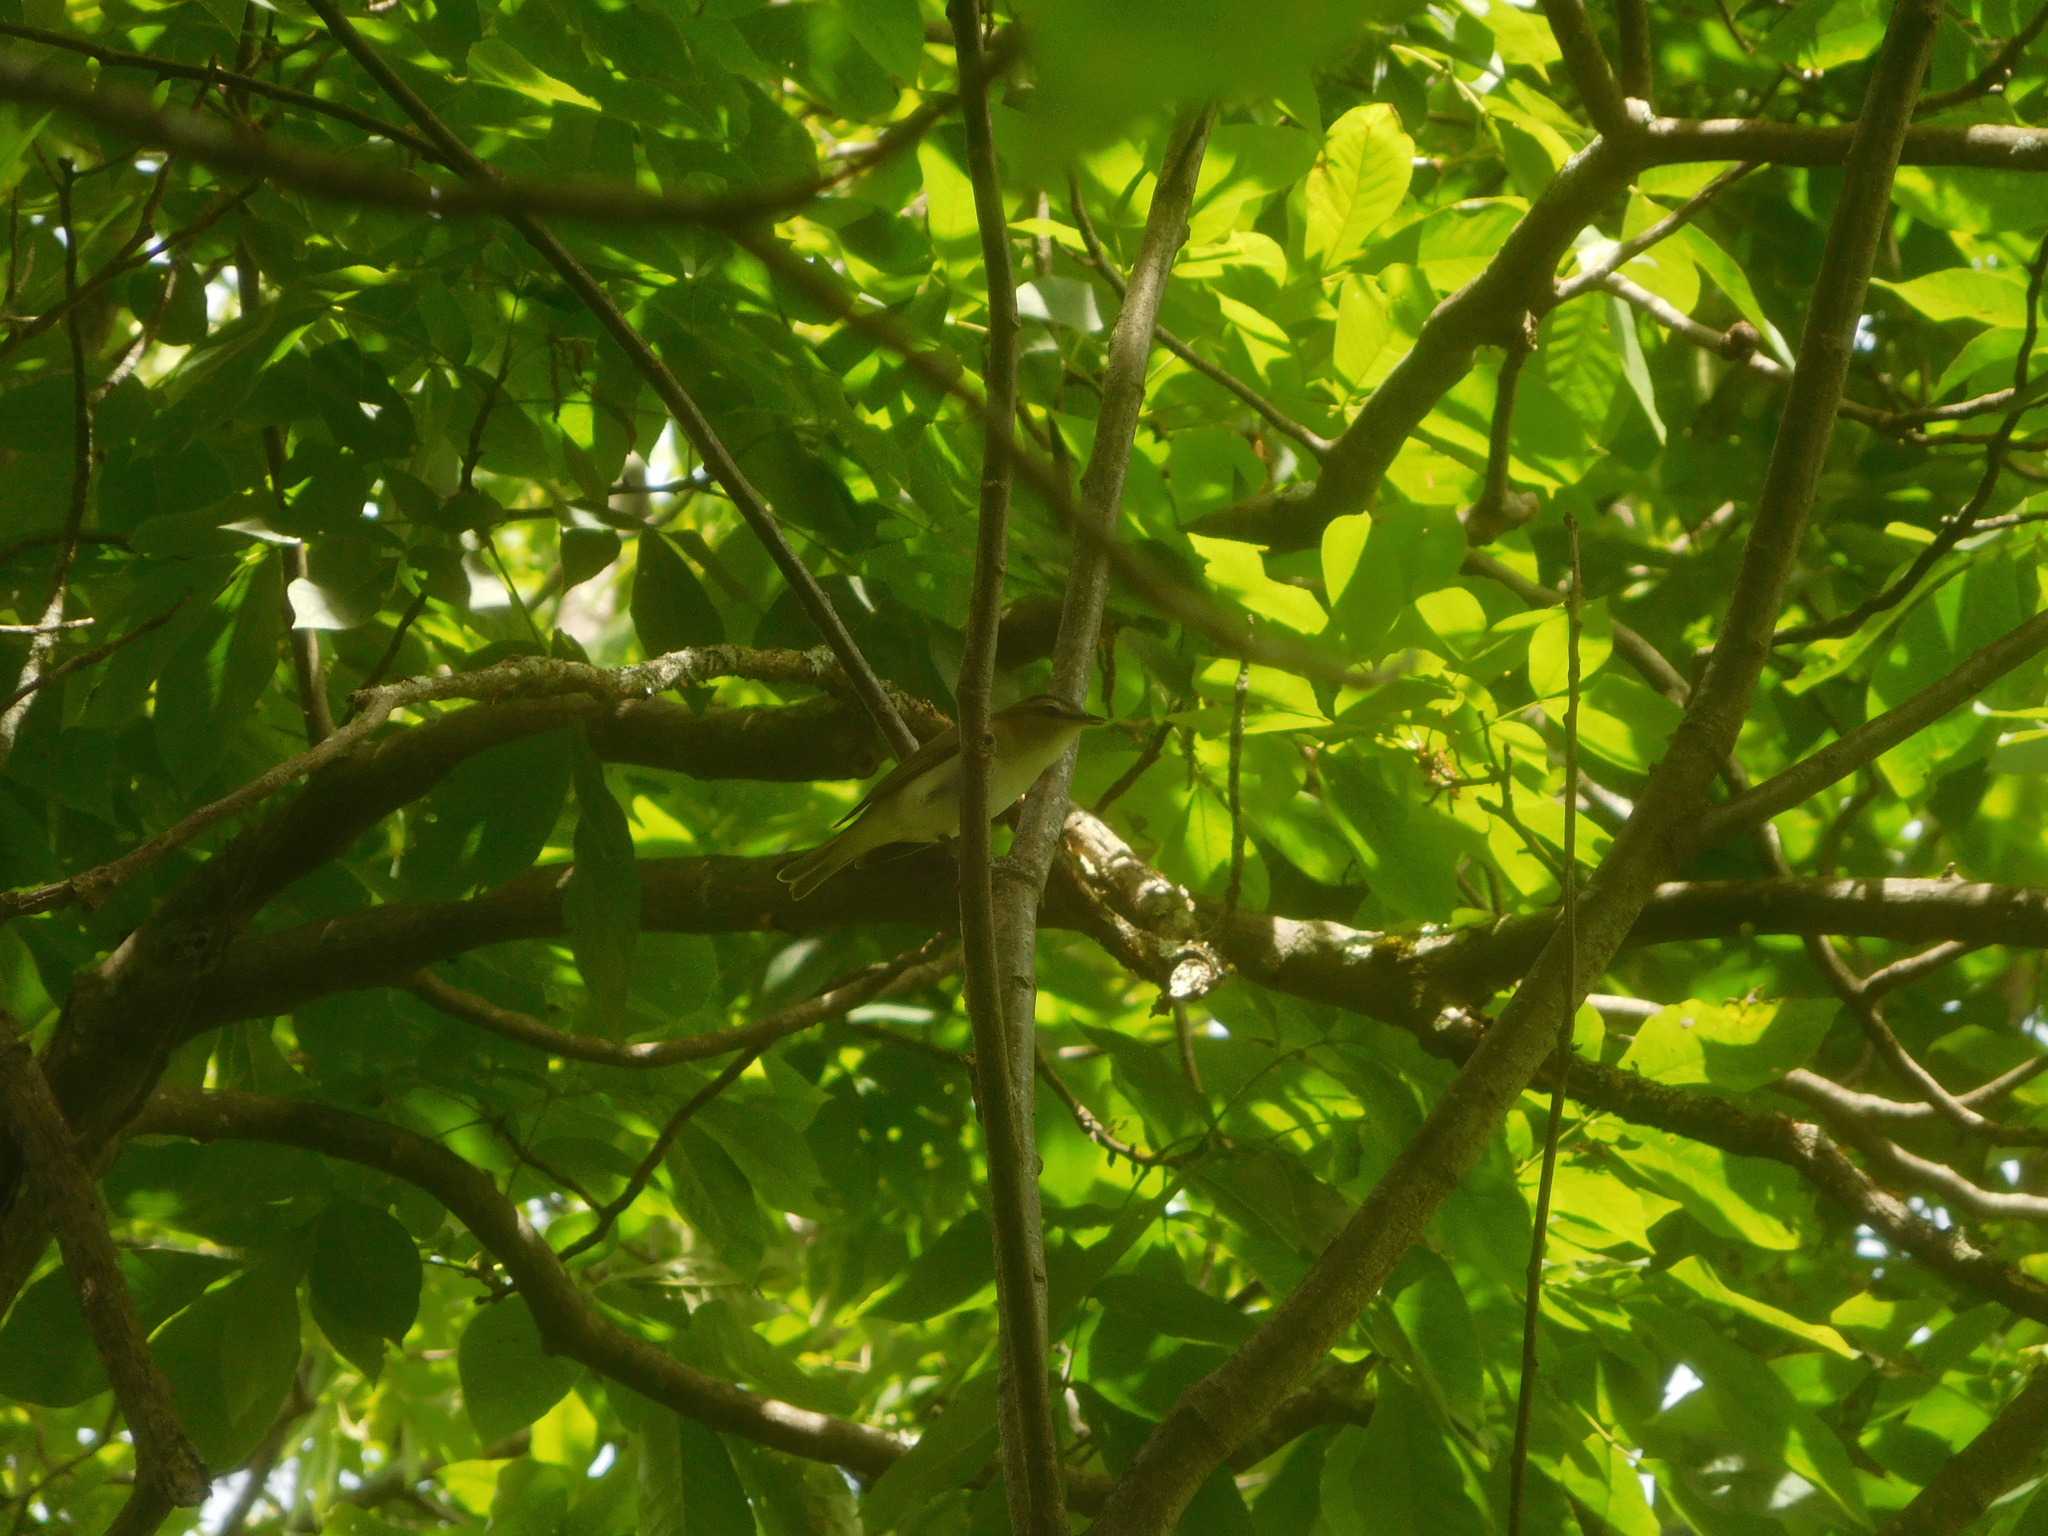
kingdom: Animalia
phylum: Chordata
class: Aves
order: Passeriformes
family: Vireonidae
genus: Vireo
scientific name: Vireo olivaceus
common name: Red-eyed vireo
